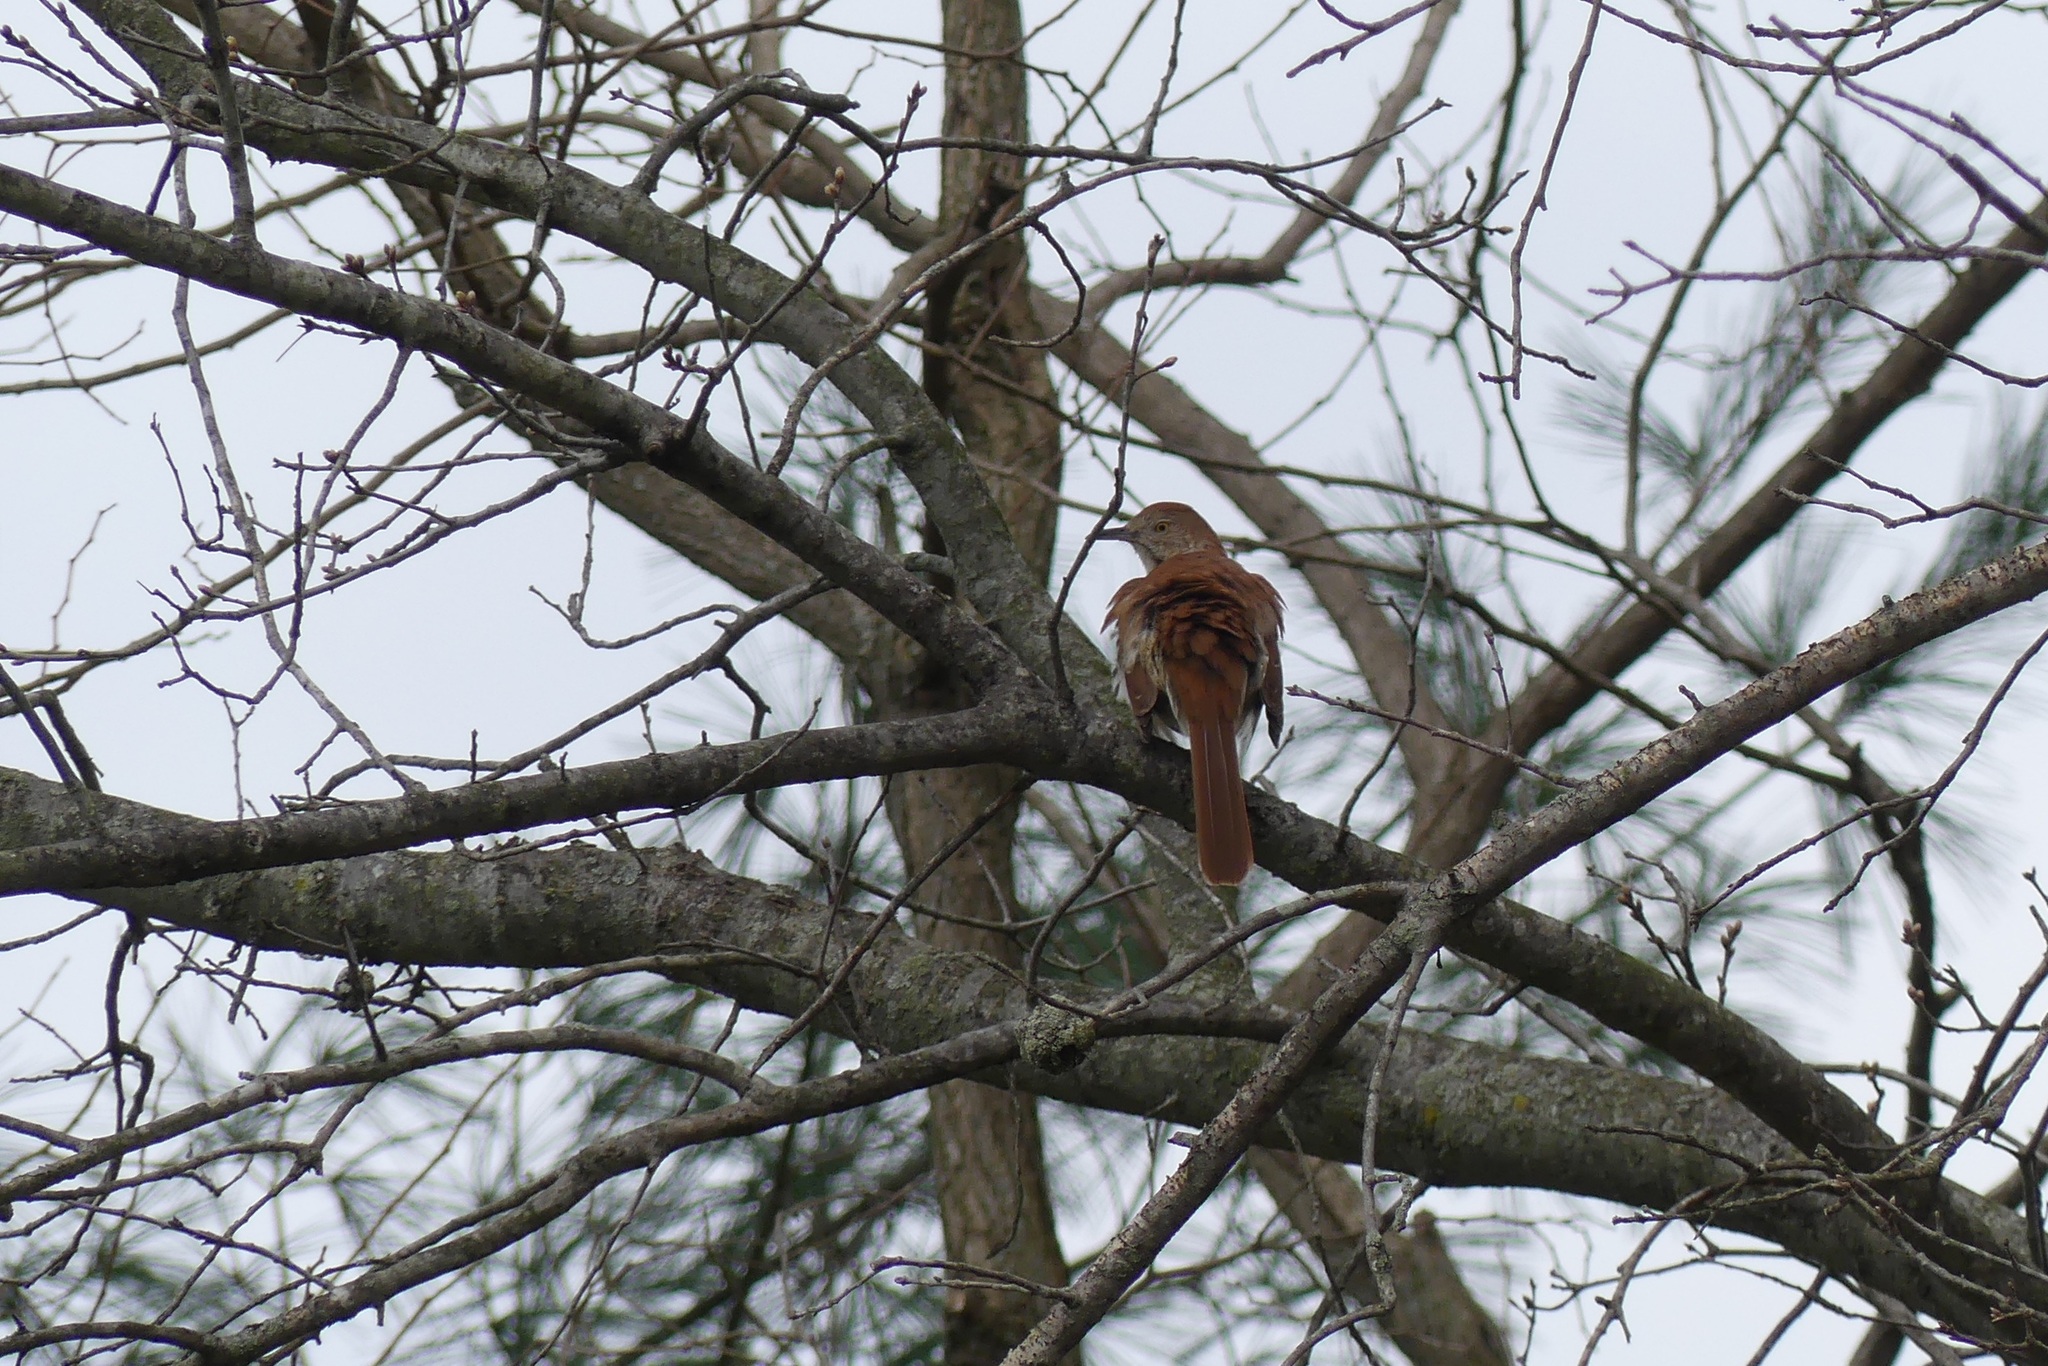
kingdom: Animalia
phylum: Chordata
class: Aves
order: Passeriformes
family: Mimidae
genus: Toxostoma
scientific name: Toxostoma rufum
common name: Brown thrasher
